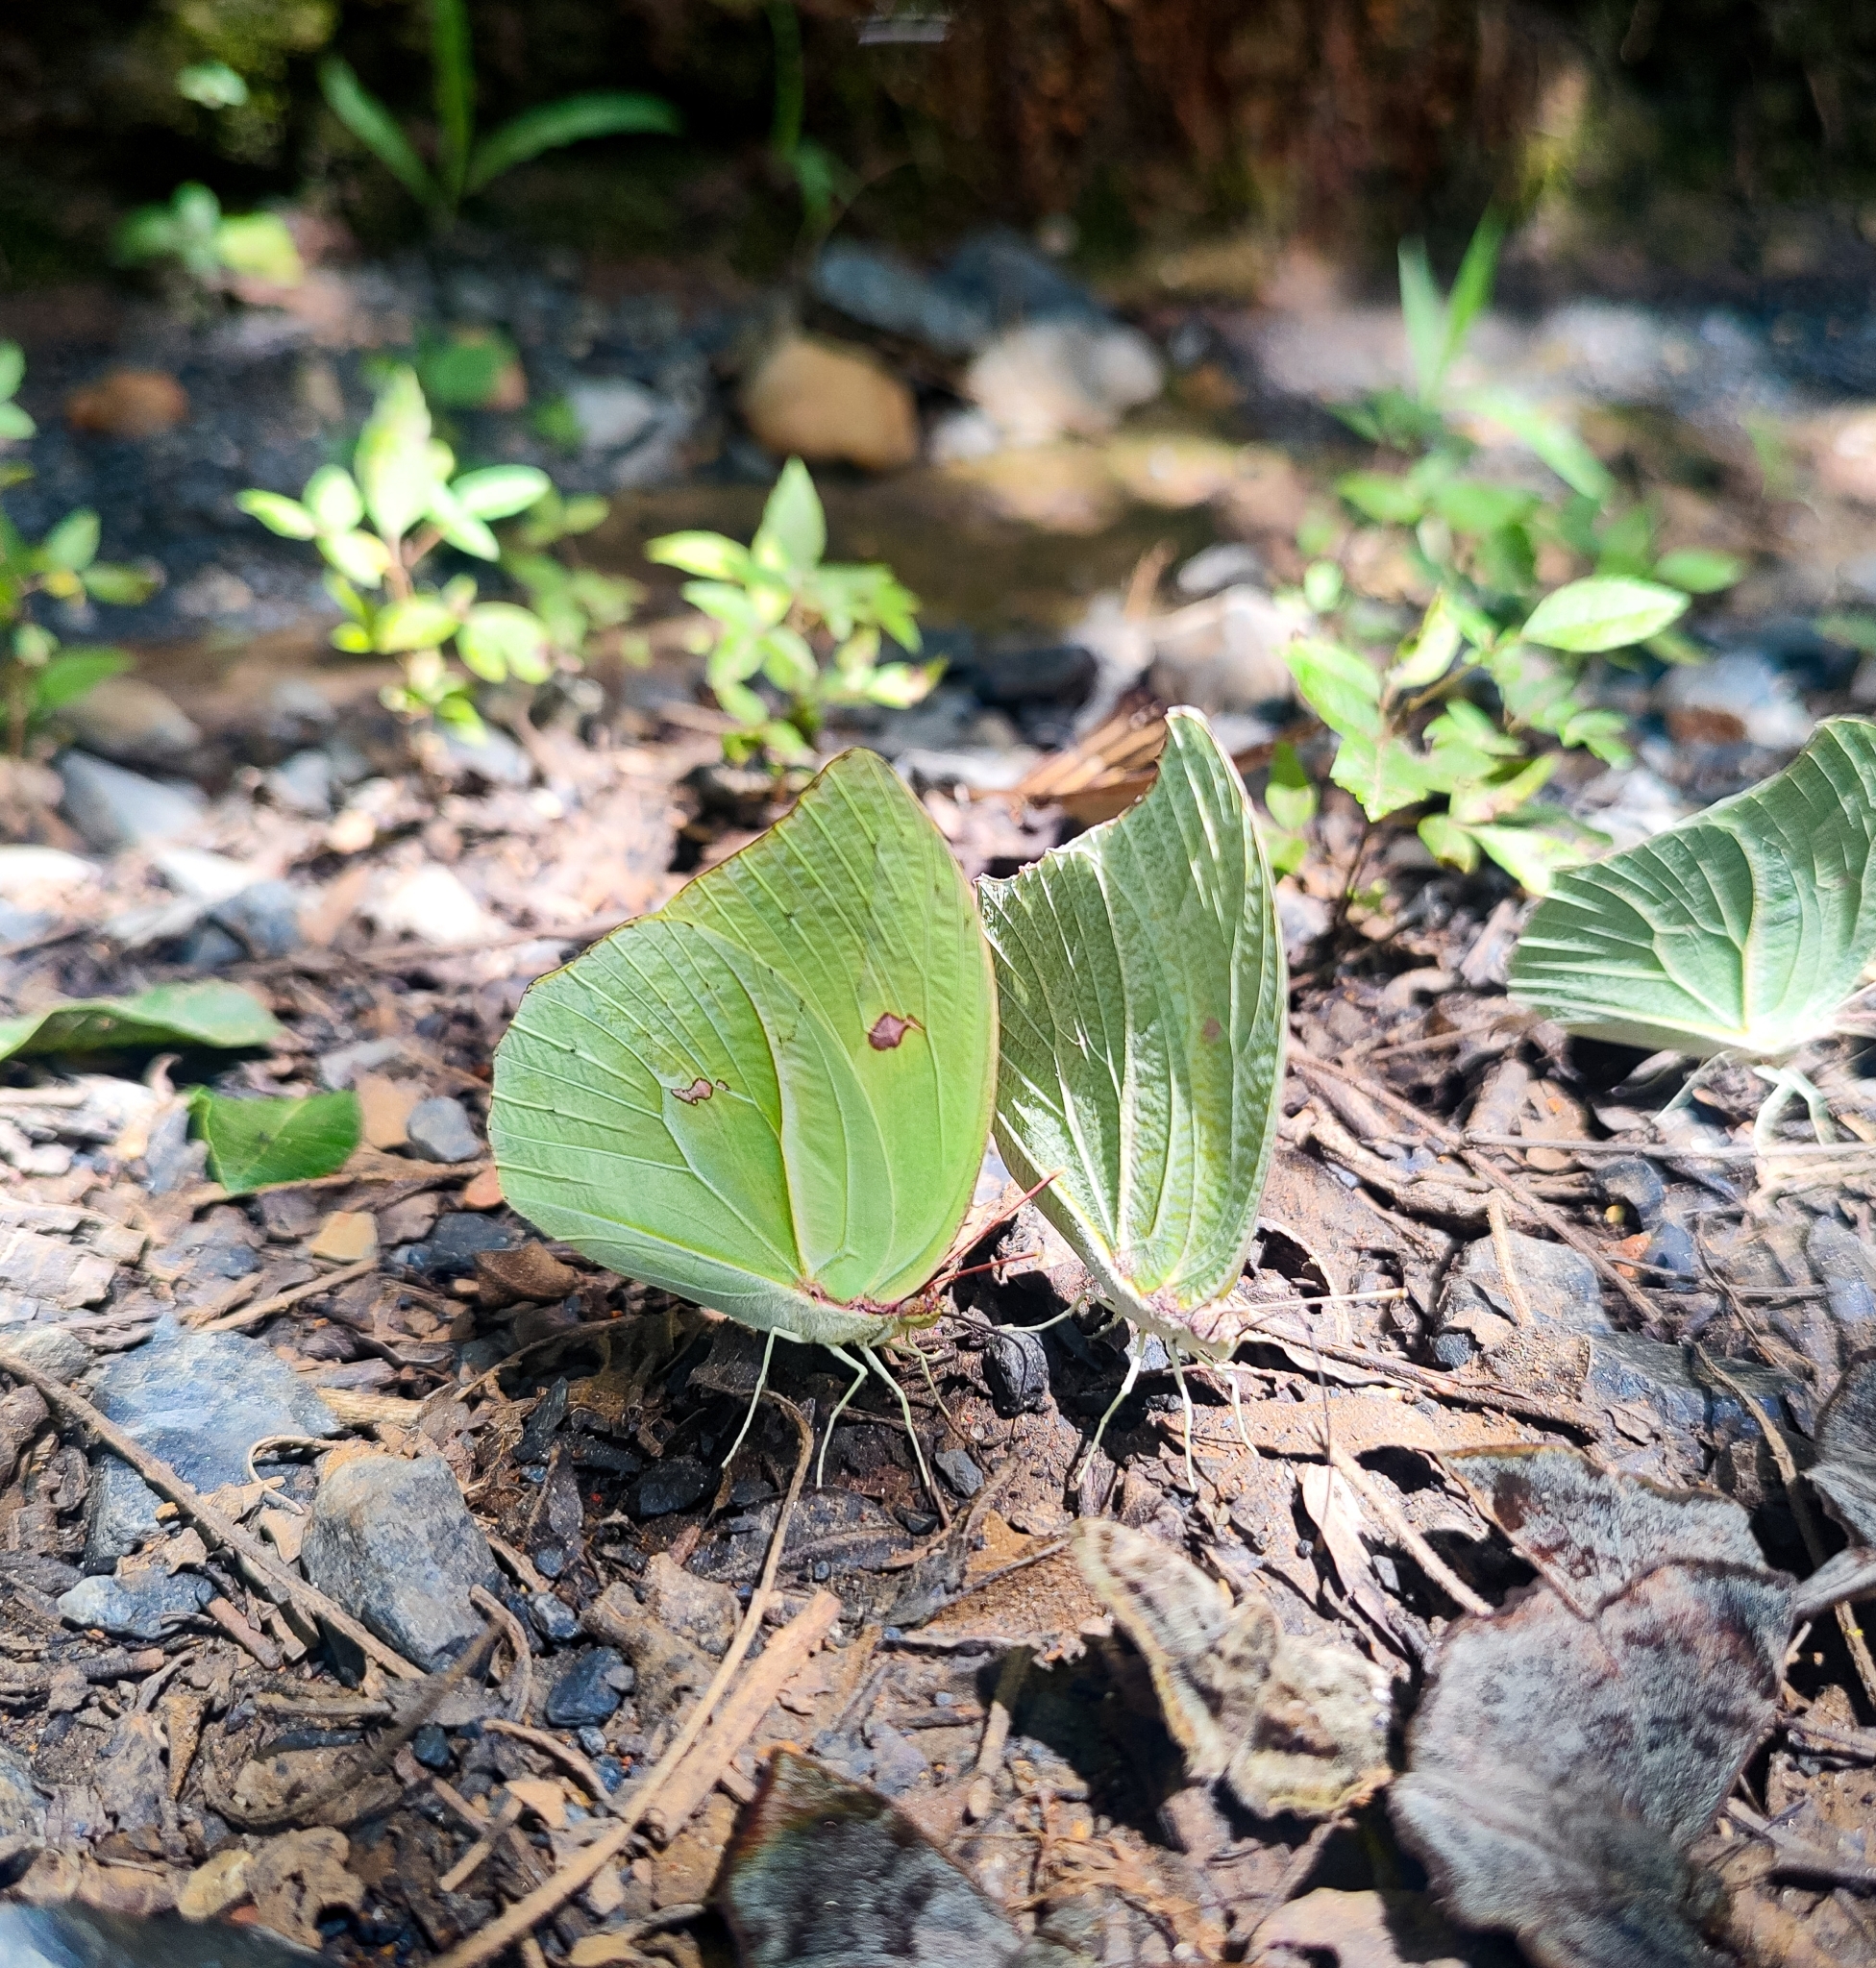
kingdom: Animalia
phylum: Arthropoda
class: Insecta
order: Lepidoptera
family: Pieridae
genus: Anteos
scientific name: Anteos clorinde
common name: White angled sulphur
